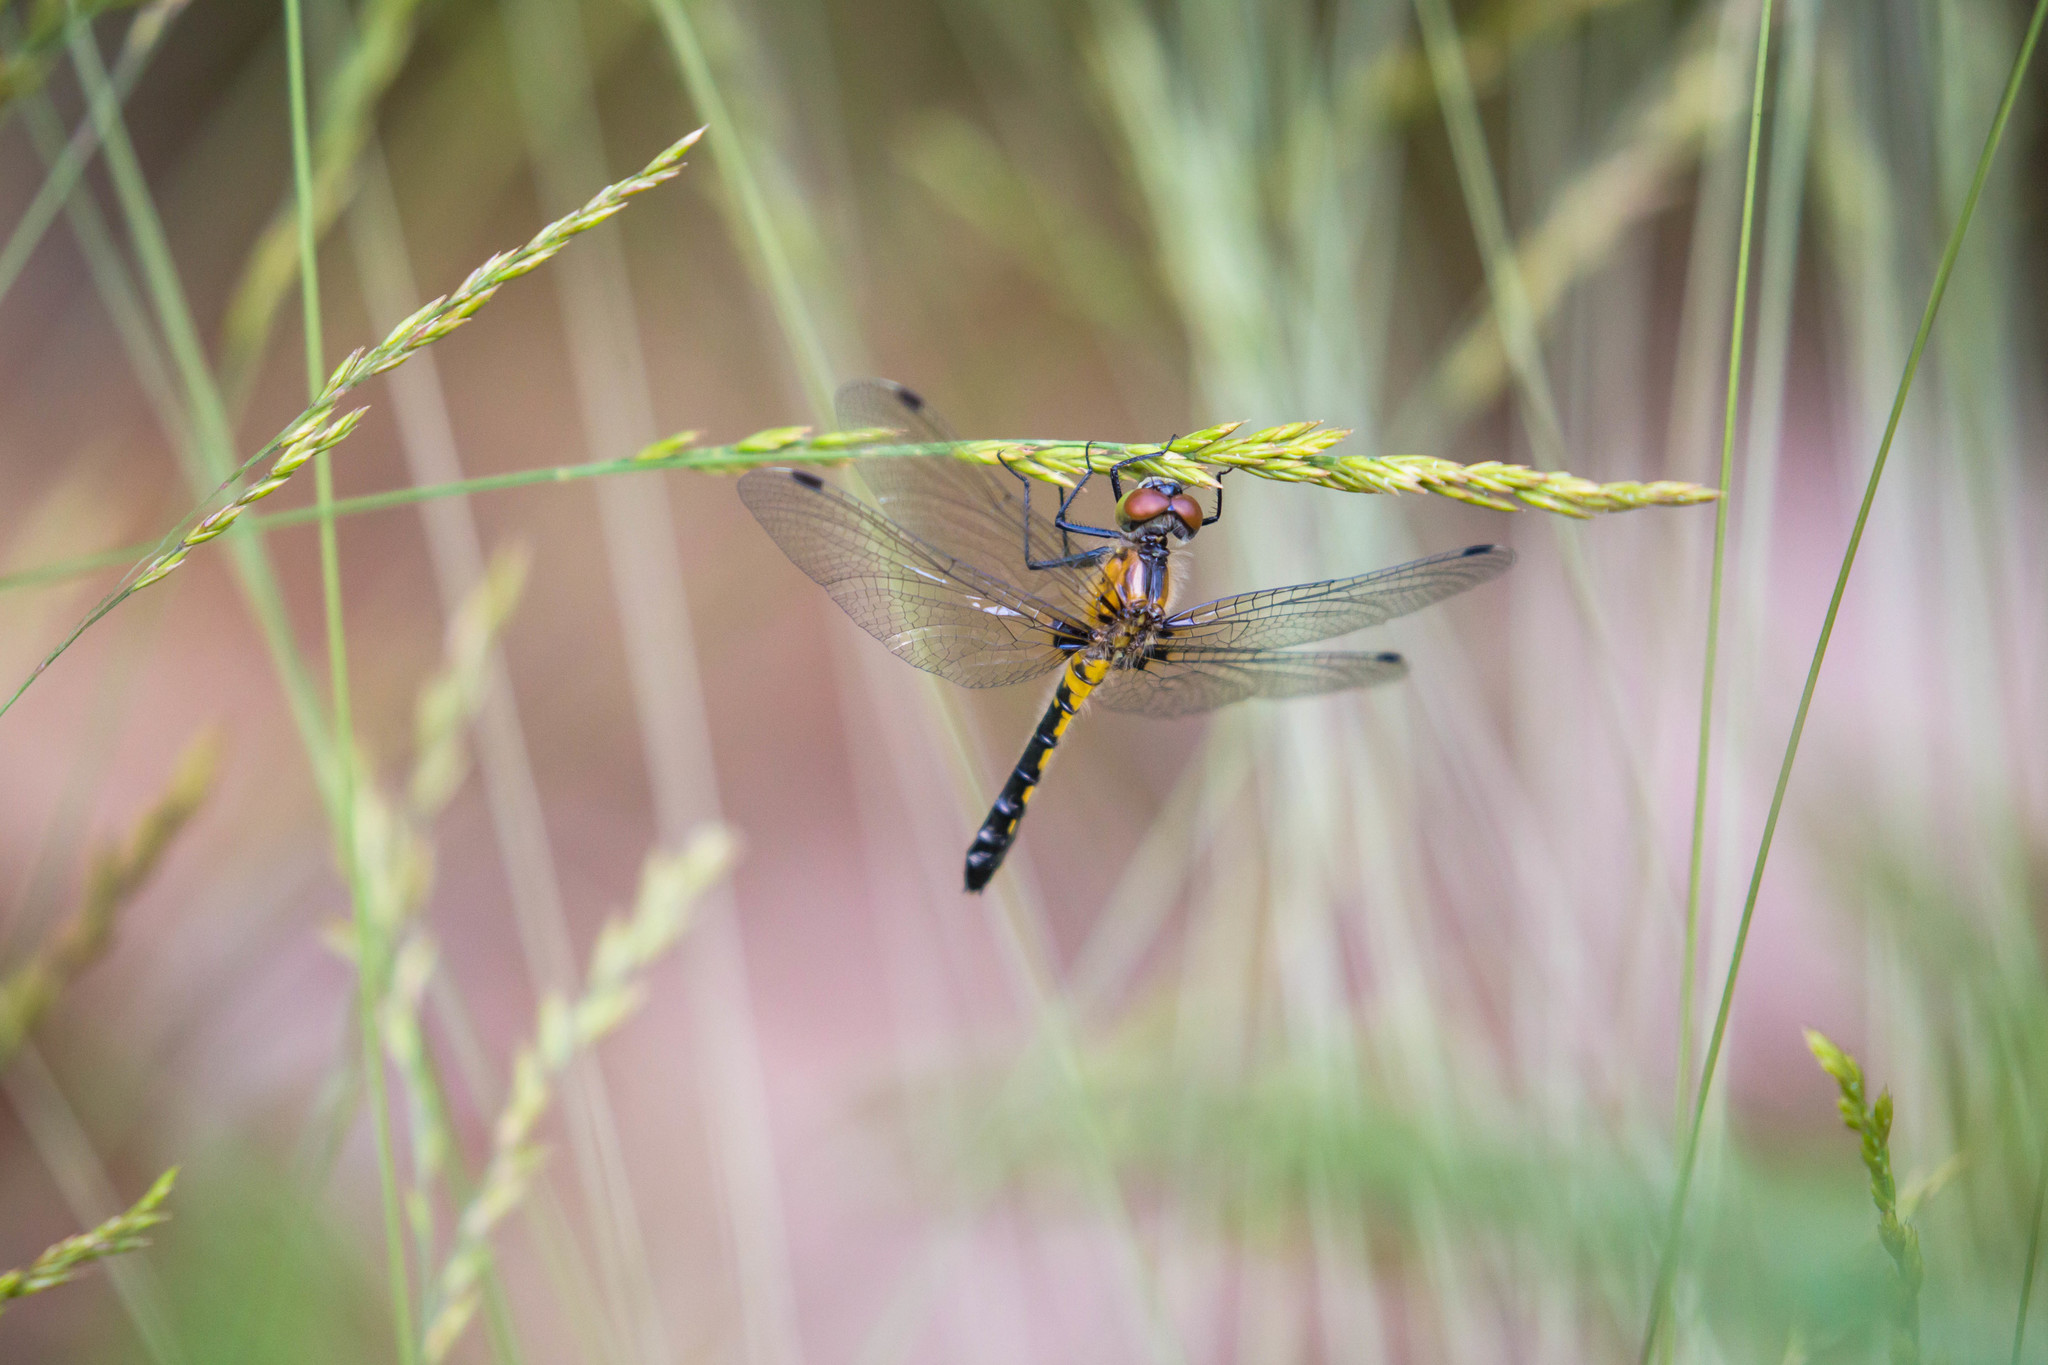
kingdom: Animalia
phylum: Arthropoda
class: Insecta
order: Odonata
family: Libellulidae
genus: Leucorrhinia
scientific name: Leucorrhinia frigida
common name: Frosted whiteface
